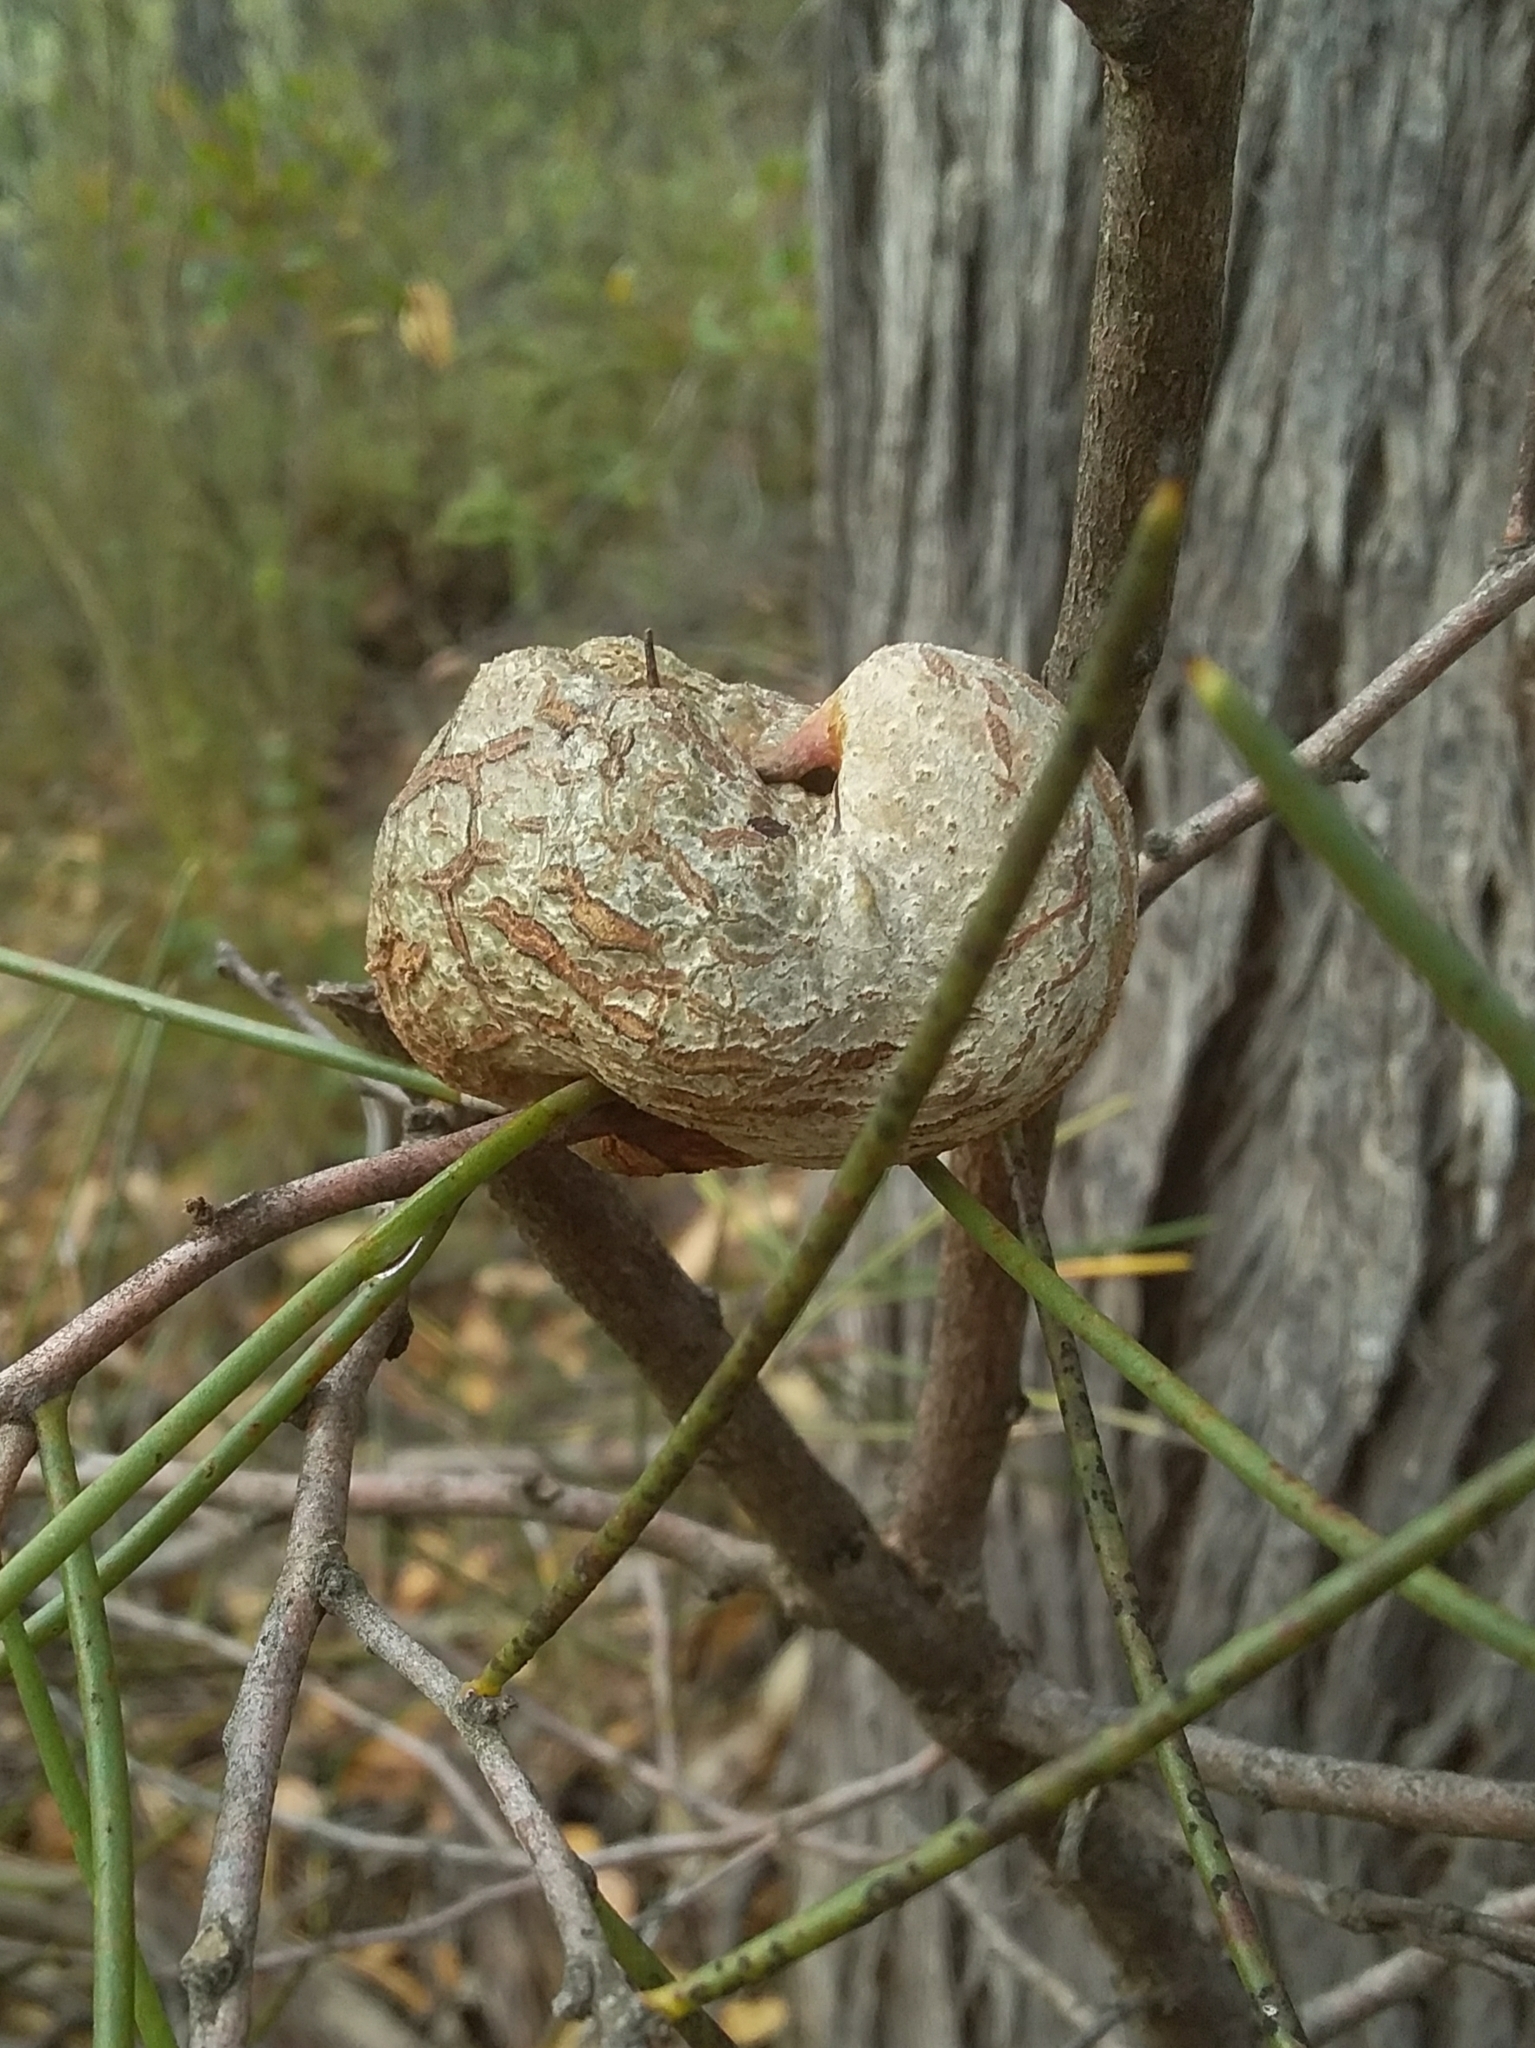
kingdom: Plantae
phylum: Tracheophyta
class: Magnoliopsida
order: Proteales
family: Proteaceae
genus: Hakea
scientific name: Hakea rostrata
